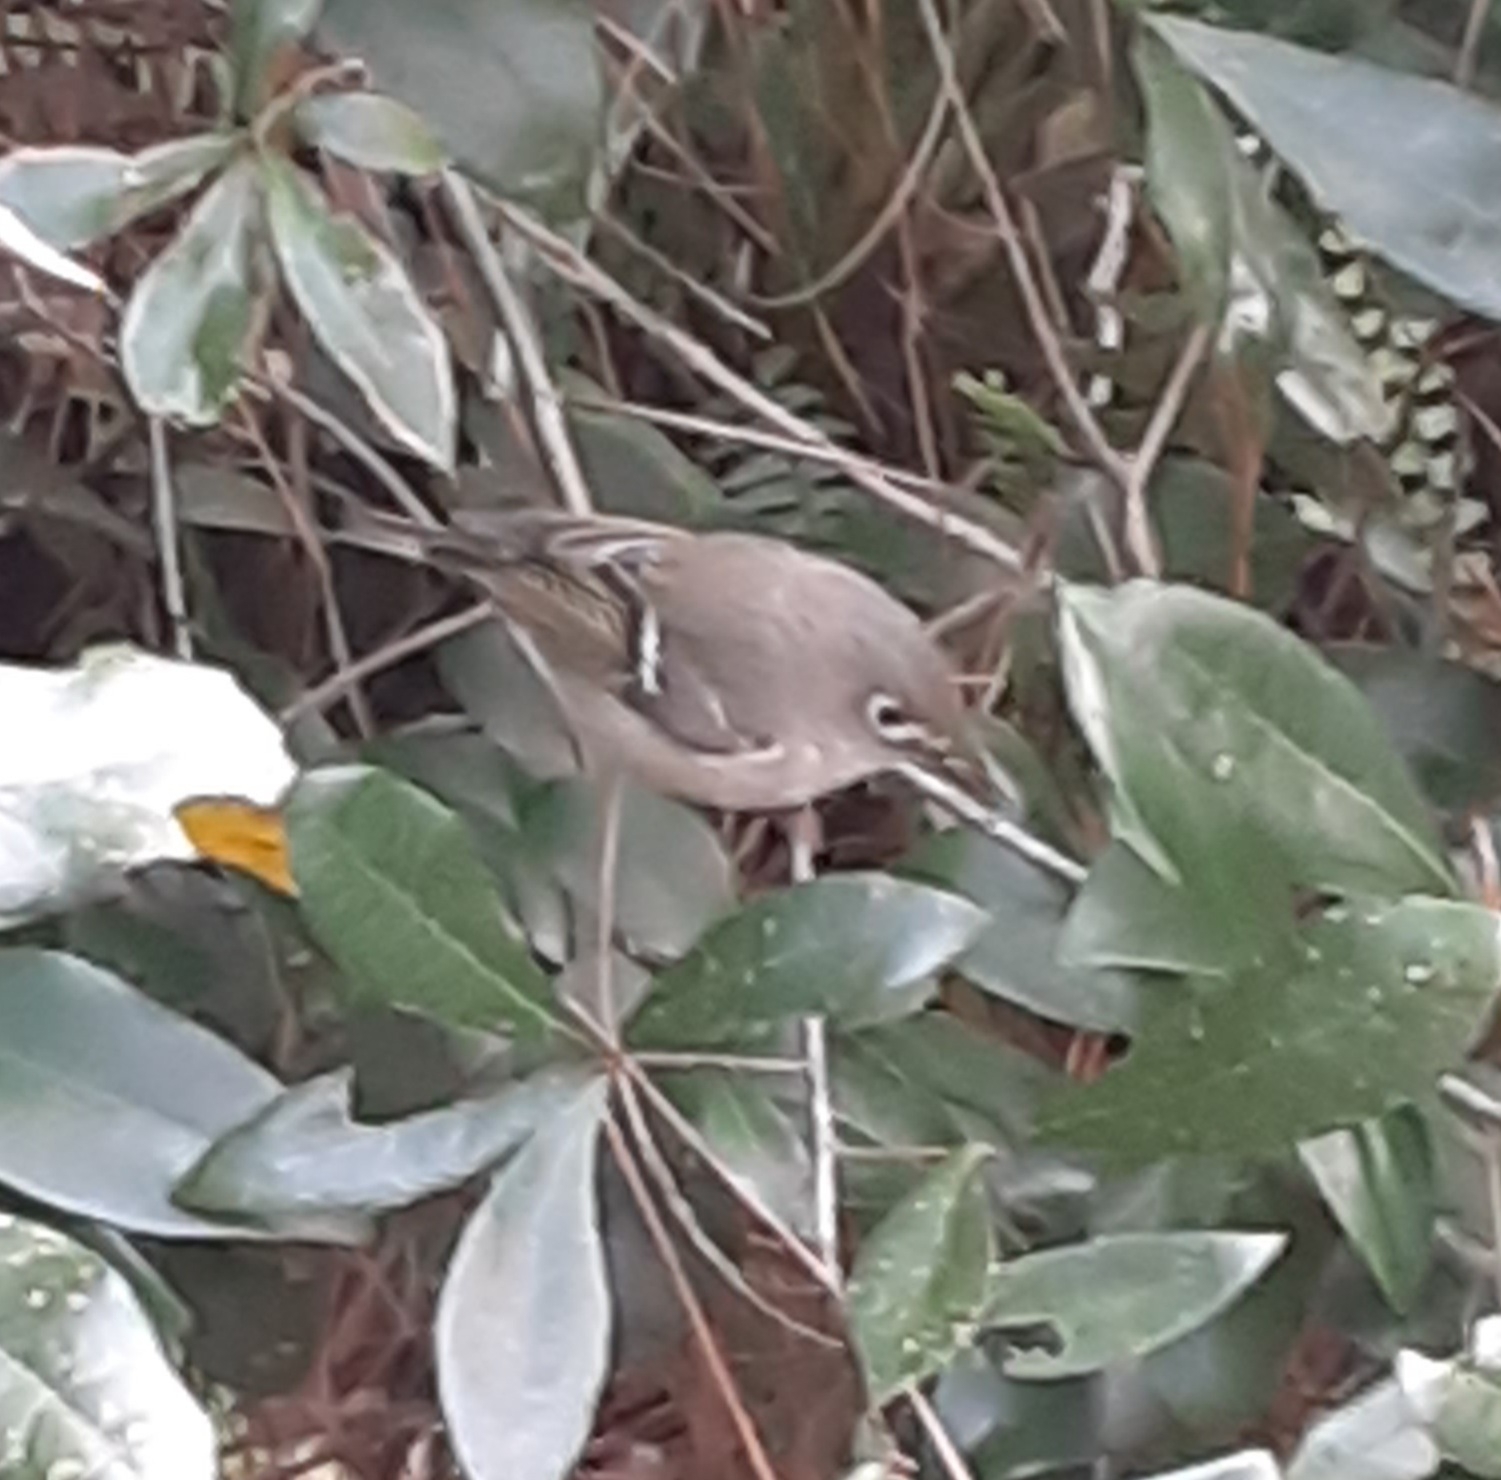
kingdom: Animalia
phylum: Chordata
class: Aves
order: Passeriformes
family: Regulidae
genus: Regulus
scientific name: Regulus calendula
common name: Ruby-crowned kinglet
